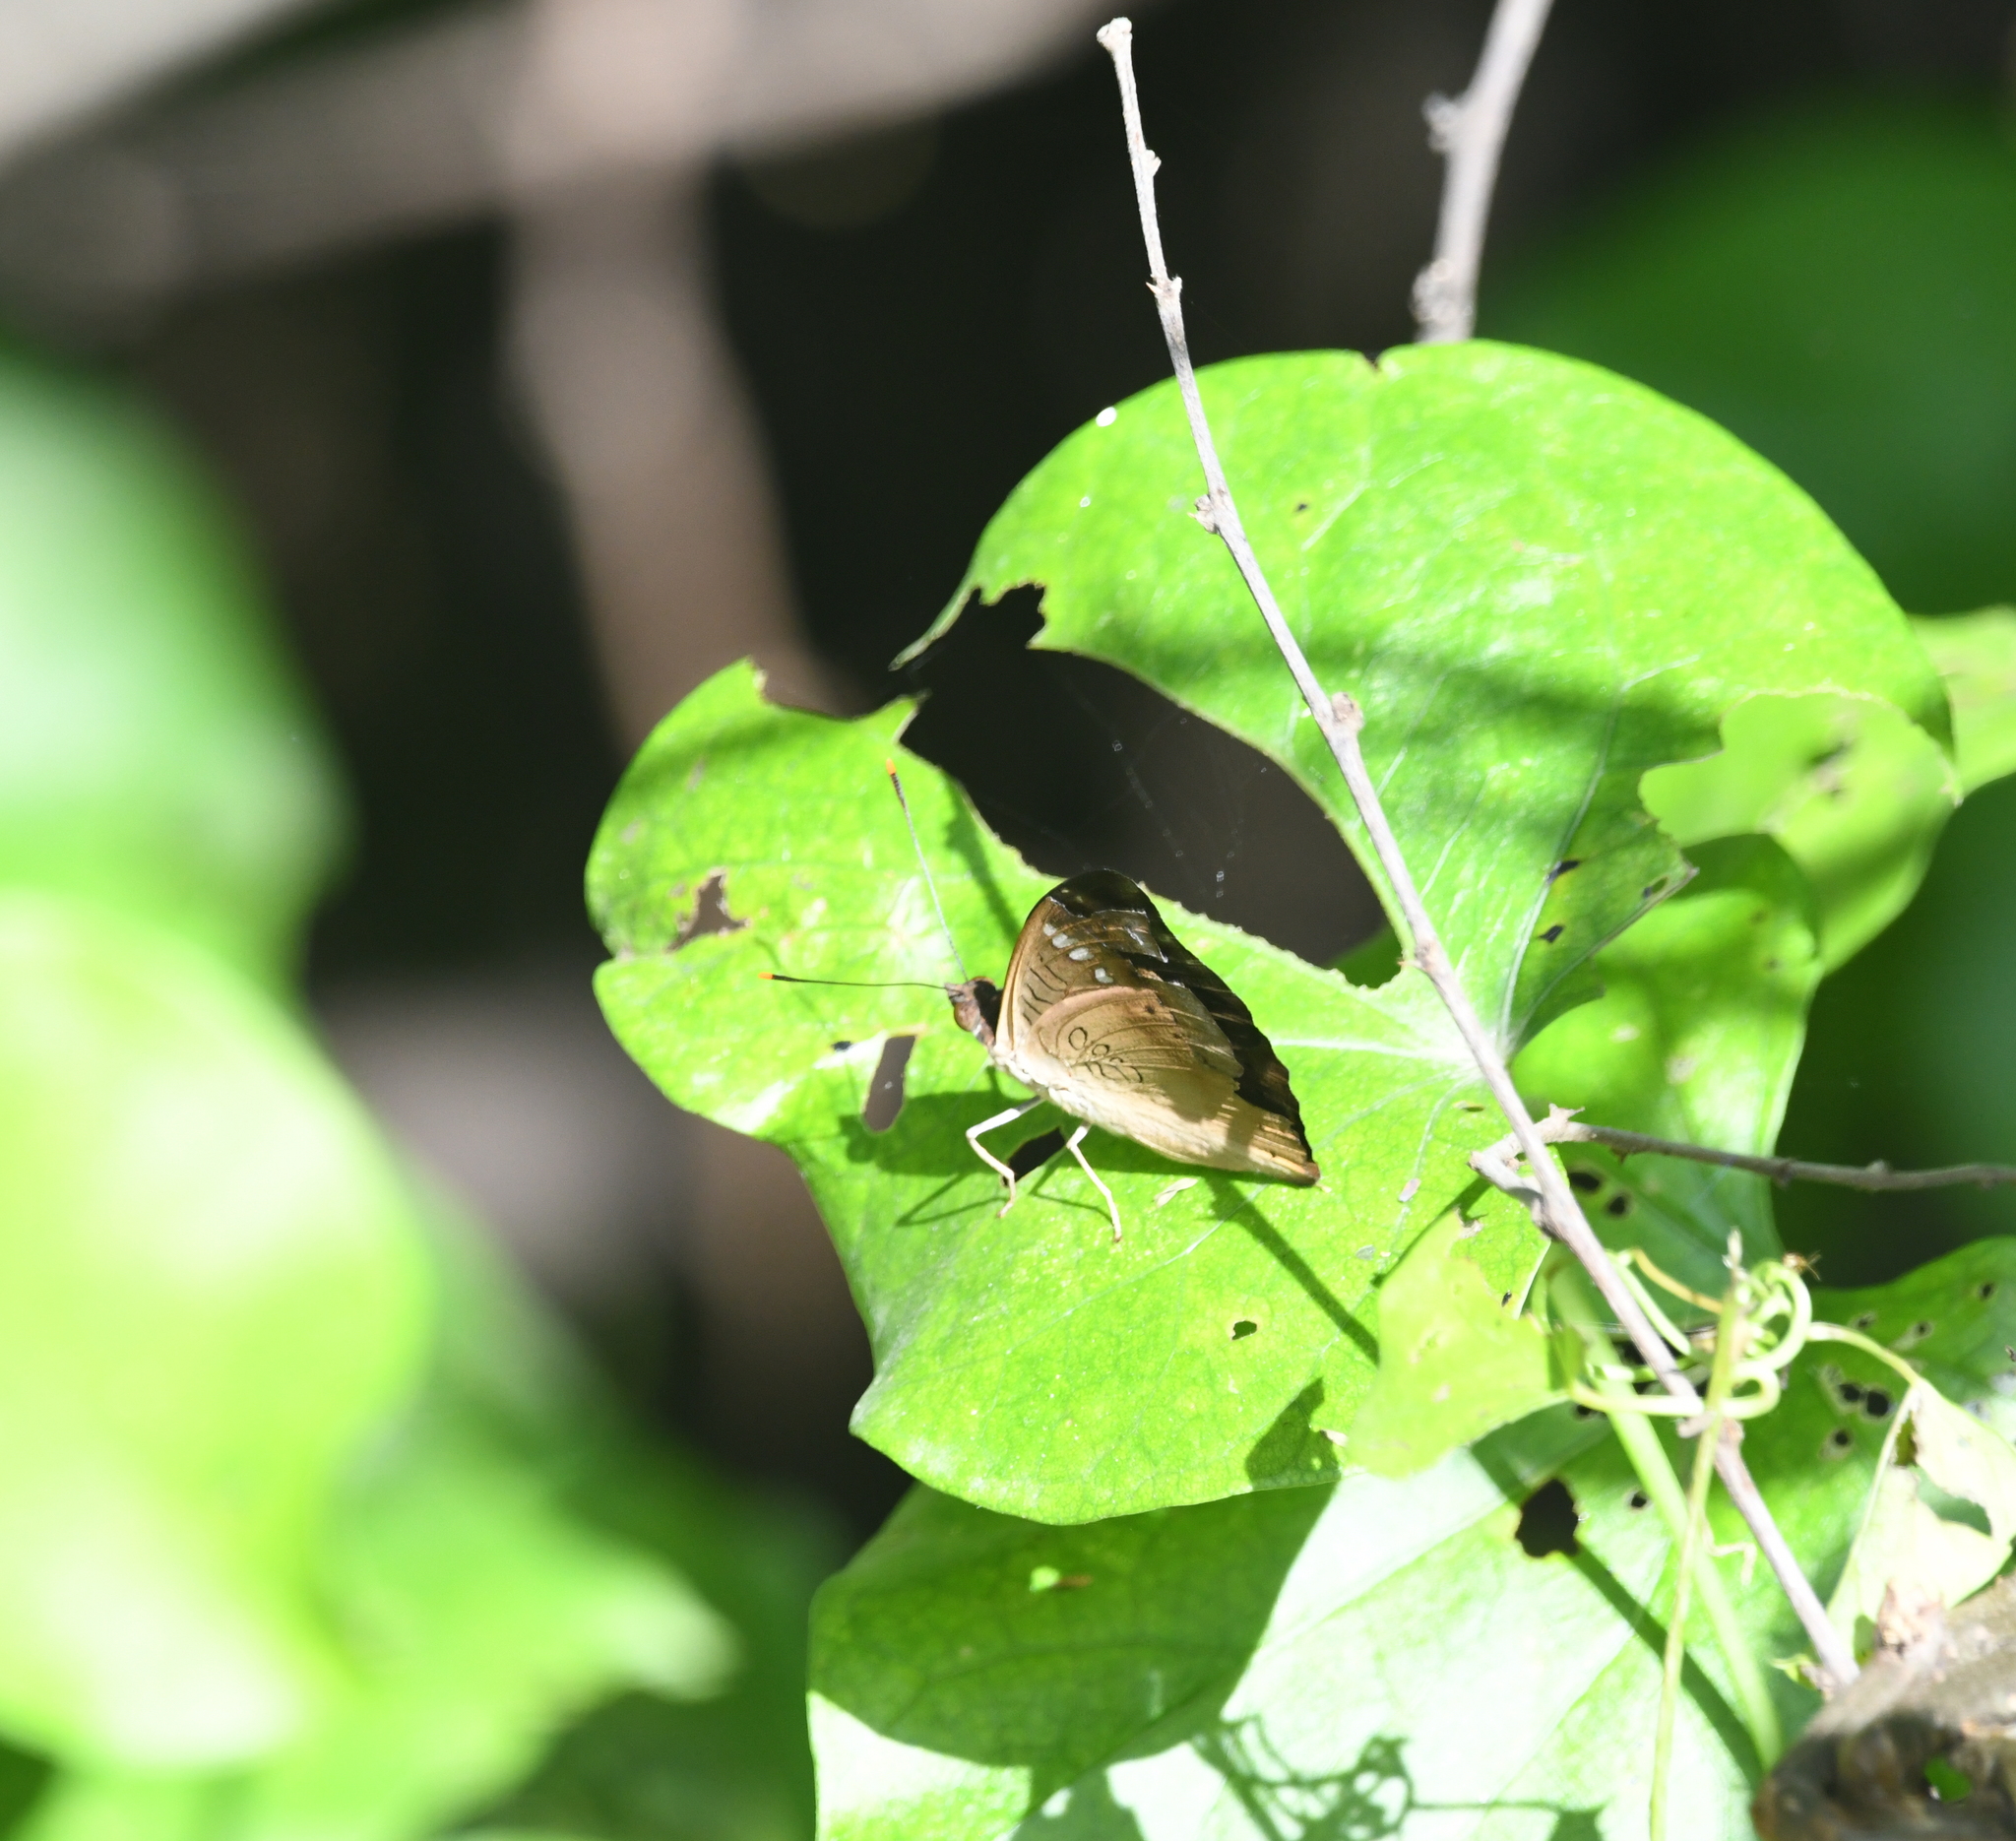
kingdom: Animalia
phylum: Arthropoda
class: Insecta
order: Lepidoptera
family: Nymphalidae
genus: Euthalia
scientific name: Euthalia aconthea
